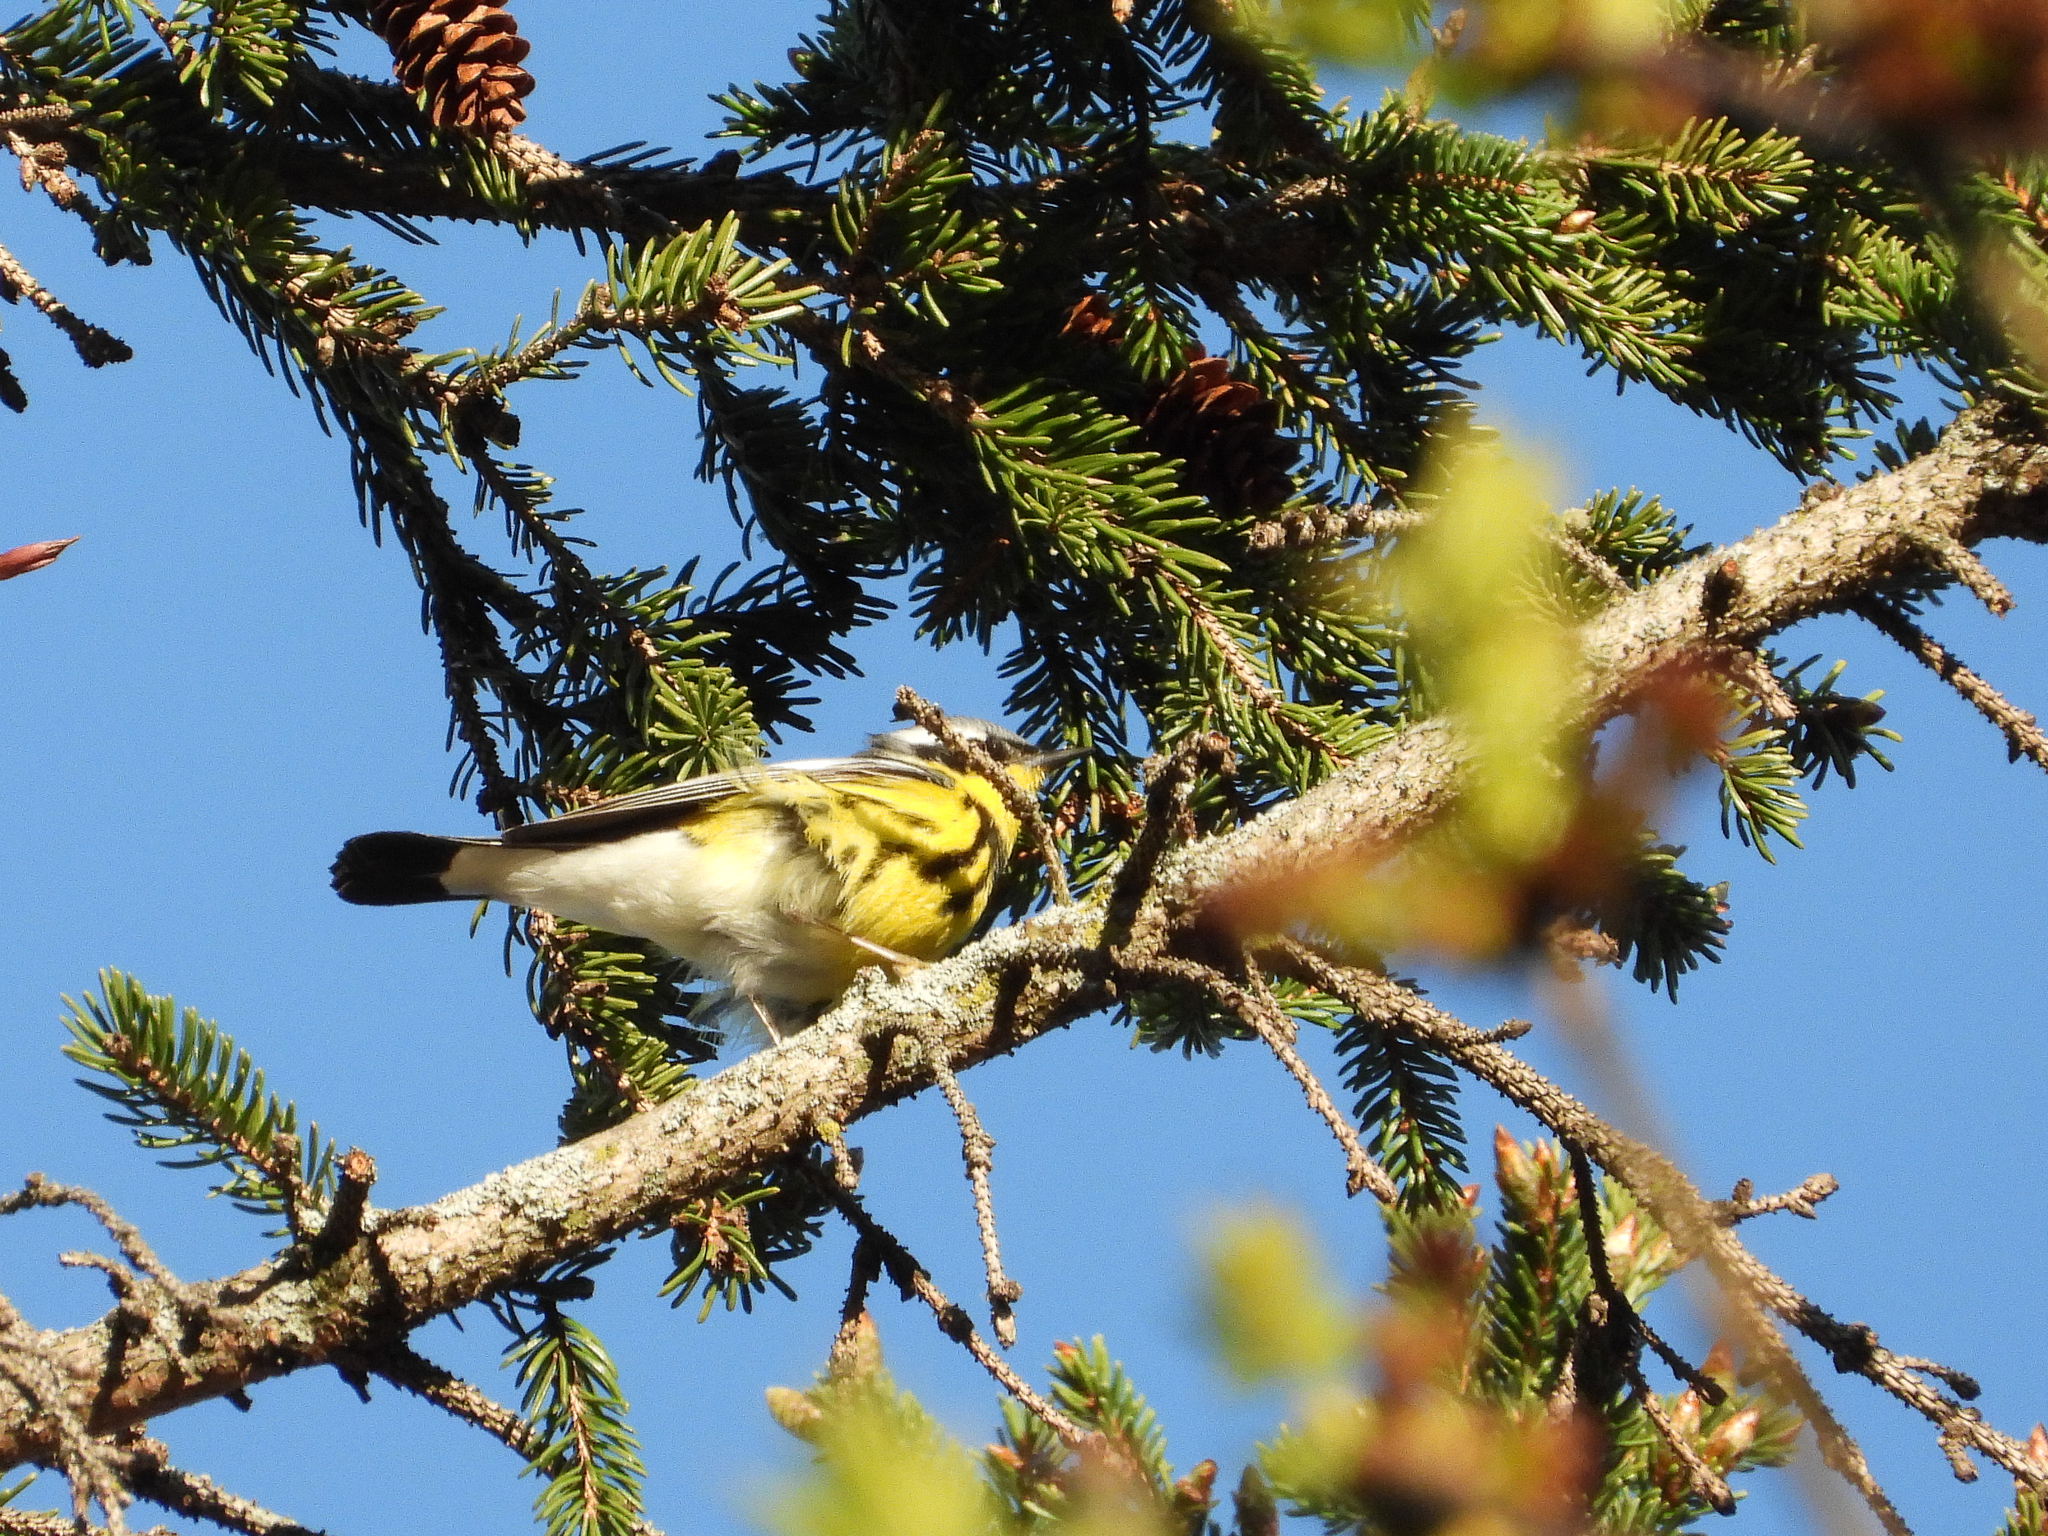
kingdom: Animalia
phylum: Chordata
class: Aves
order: Passeriformes
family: Parulidae
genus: Setophaga
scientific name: Setophaga magnolia
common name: Magnolia warbler
